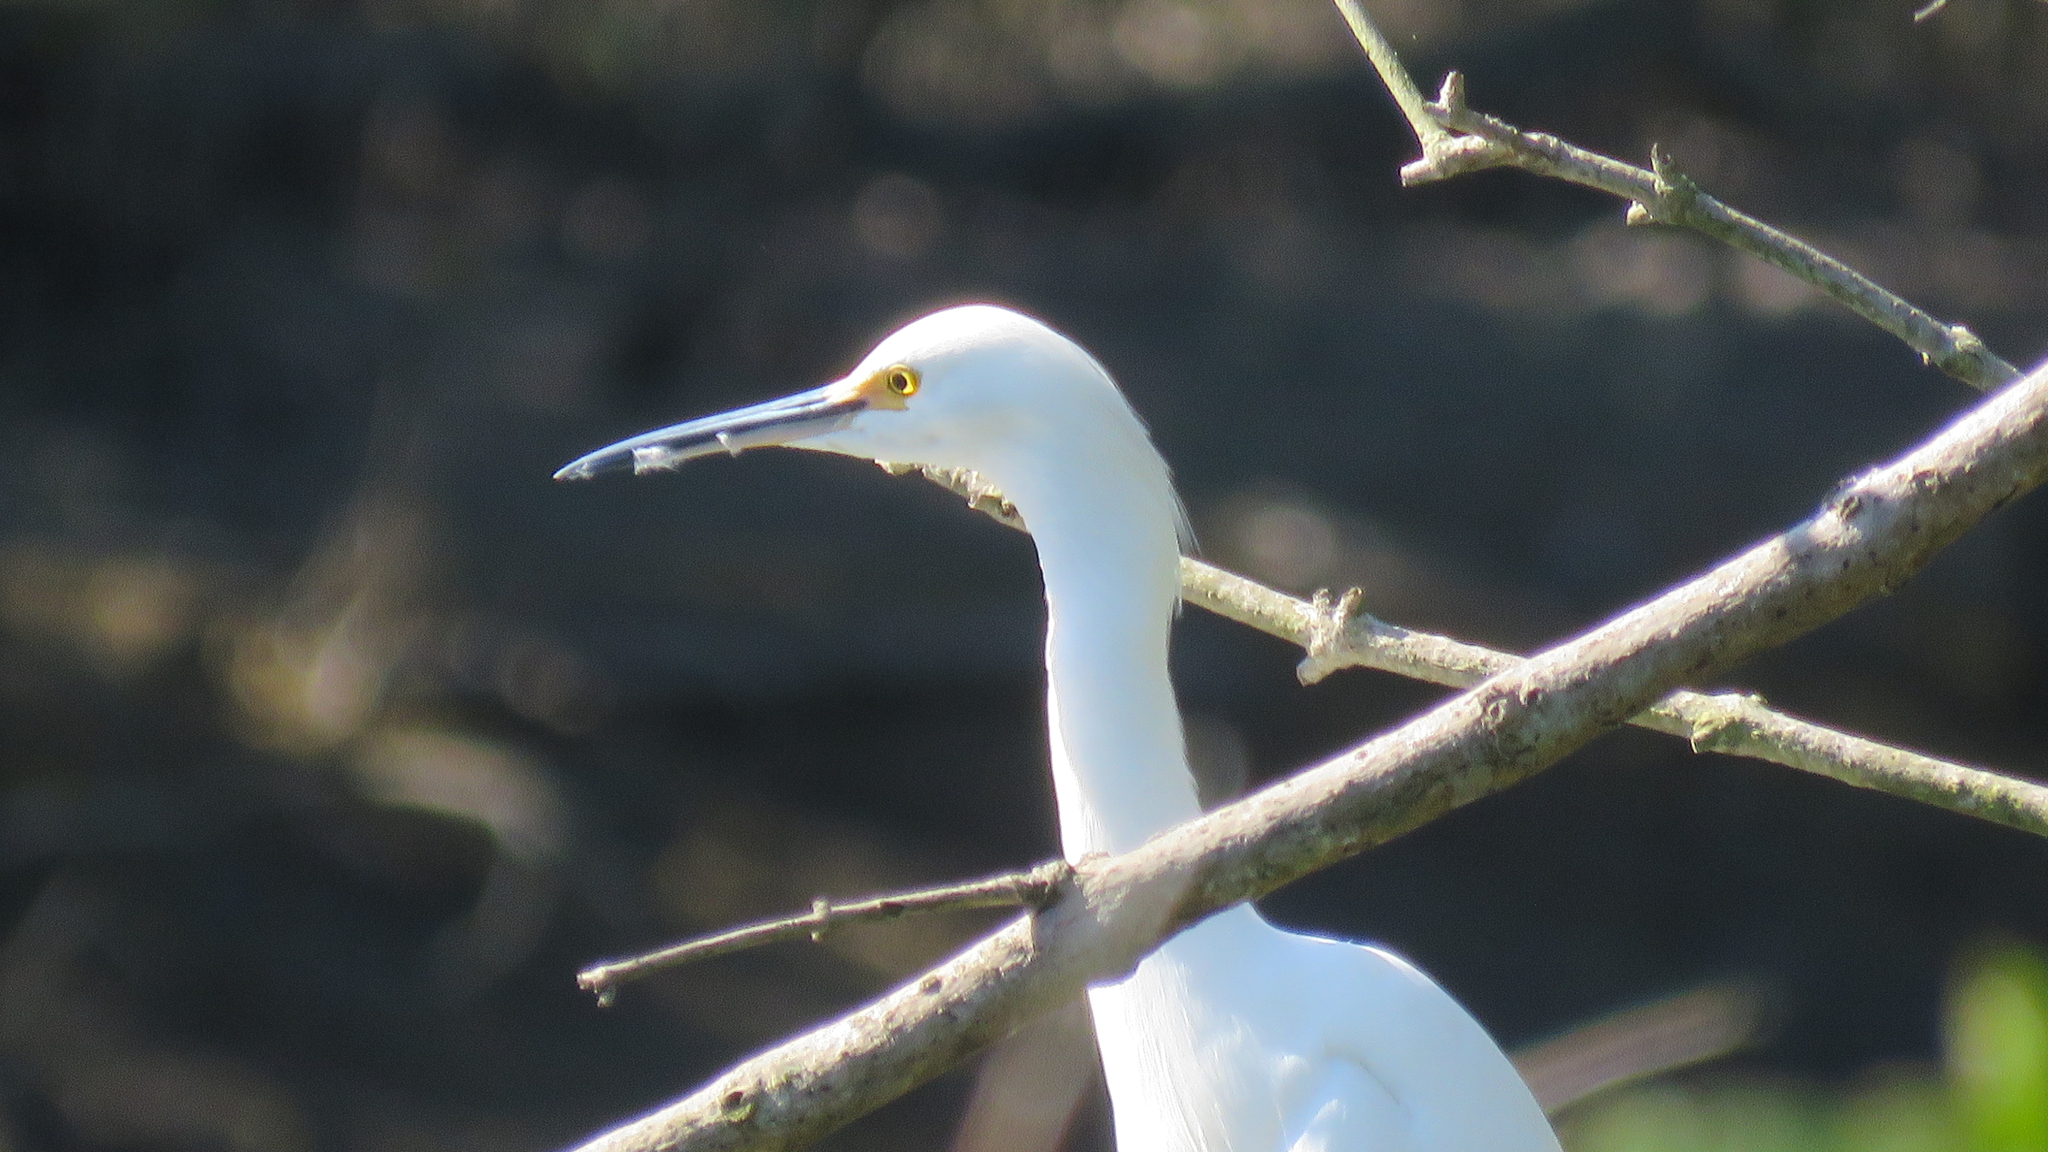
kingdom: Animalia
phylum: Chordata
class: Aves
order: Pelecaniformes
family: Ardeidae
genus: Egretta
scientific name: Egretta thula
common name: Snowy egret
